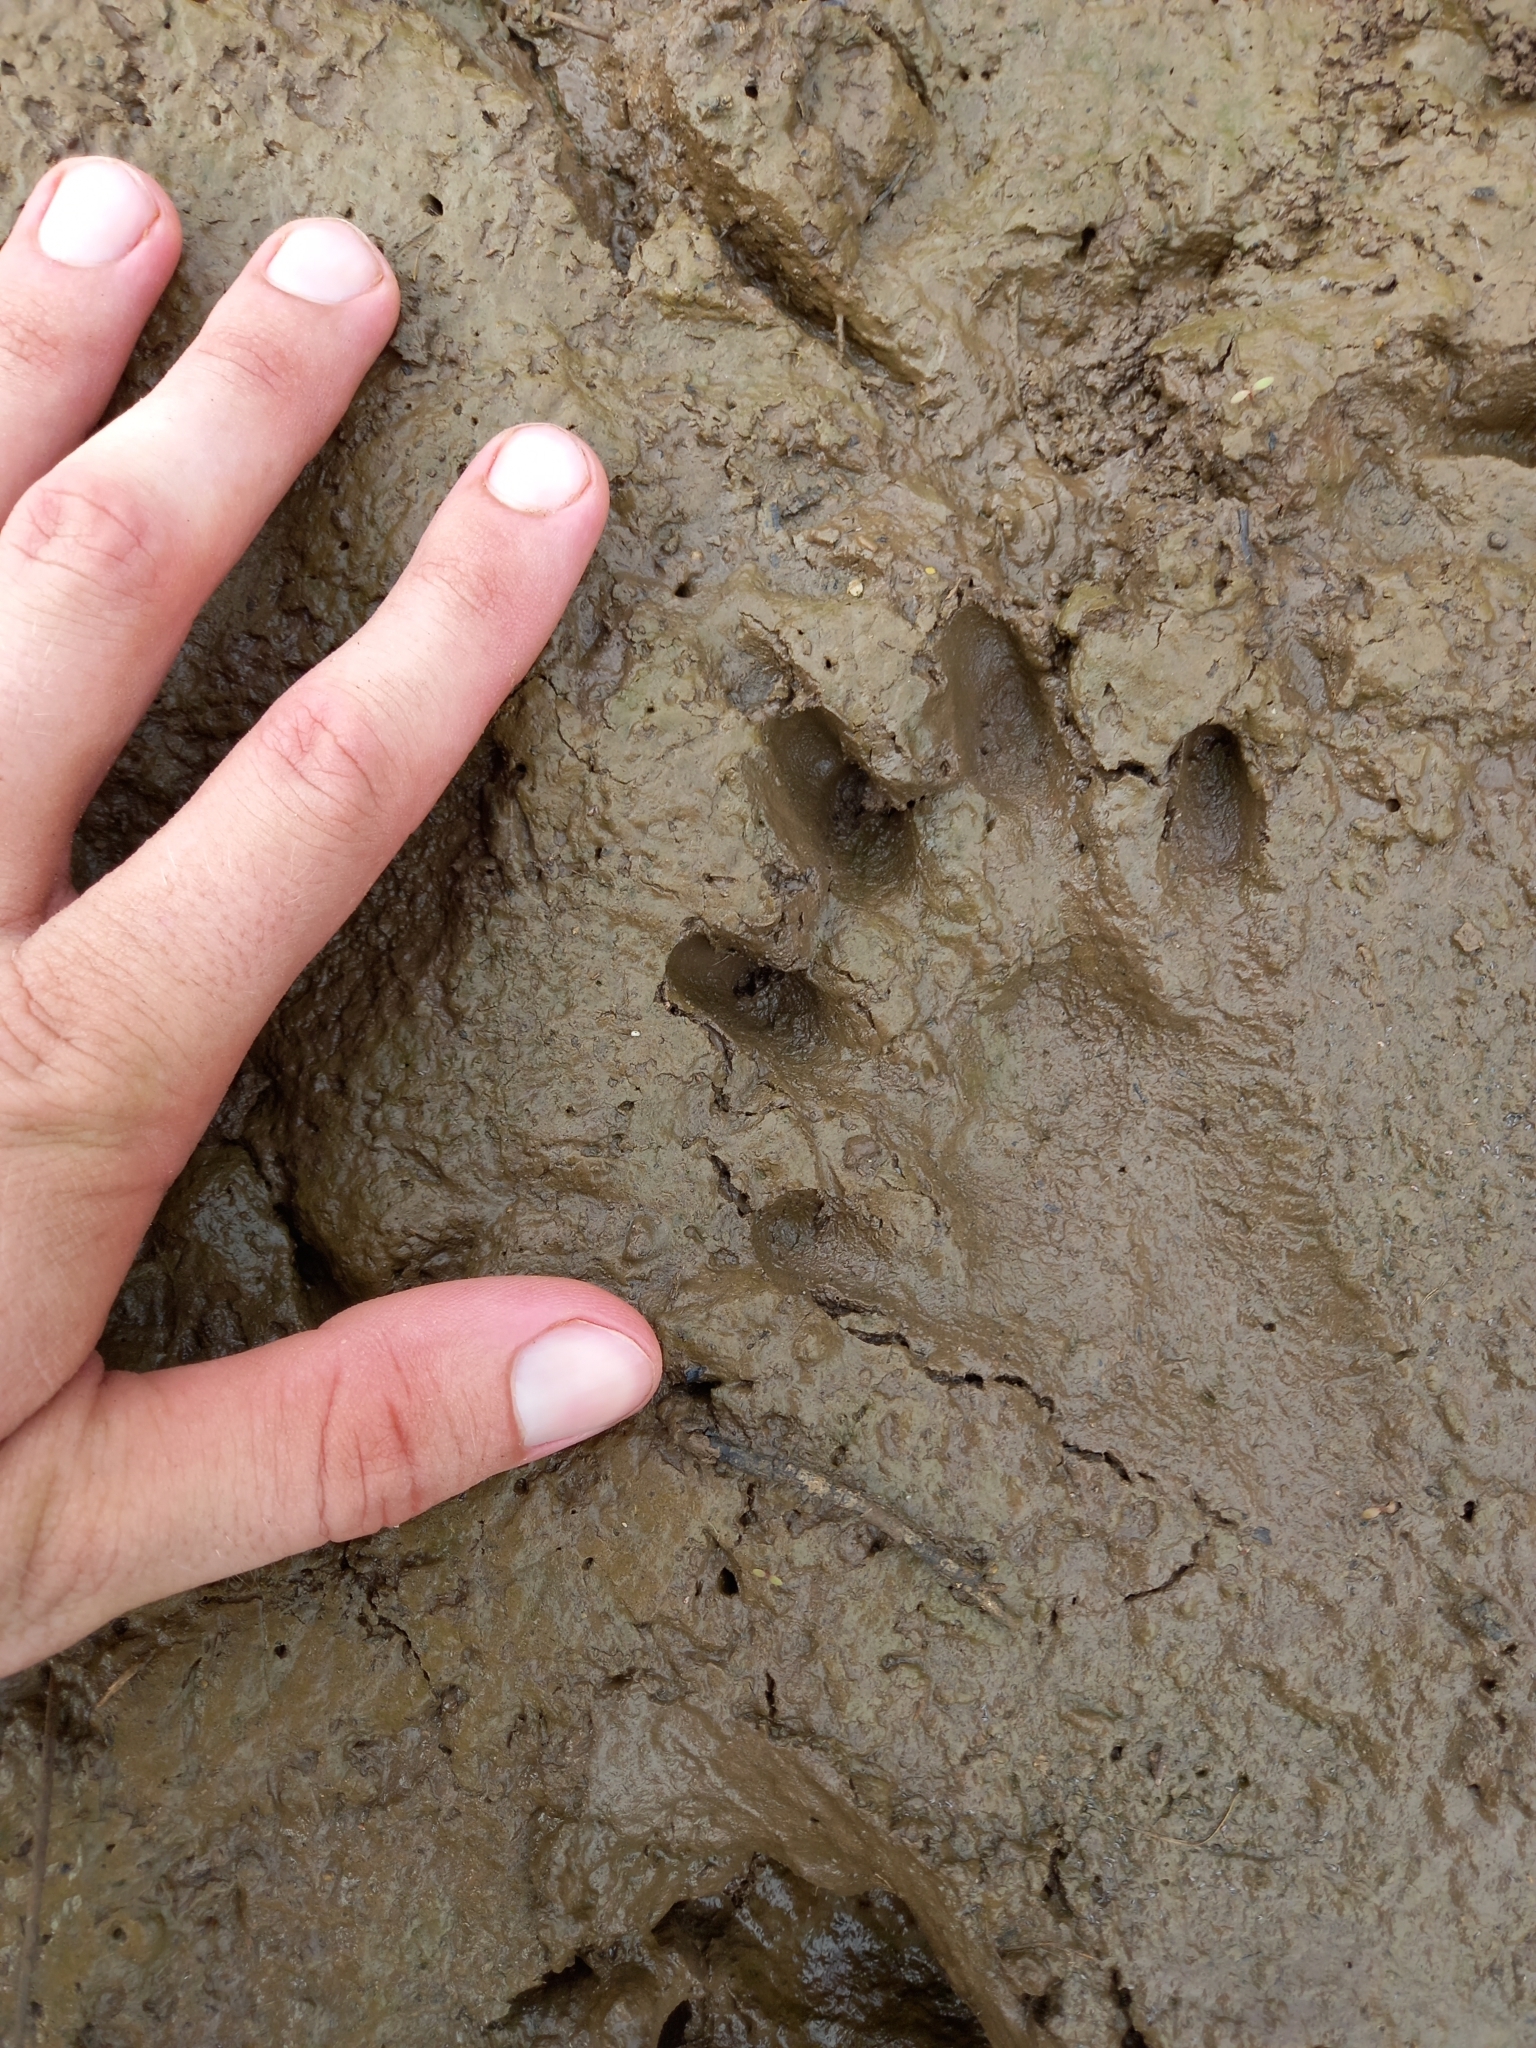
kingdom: Animalia
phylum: Chordata
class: Mammalia
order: Carnivora
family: Mustelidae
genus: Aonyx
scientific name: Aonyx capensis
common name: African clawless otter
